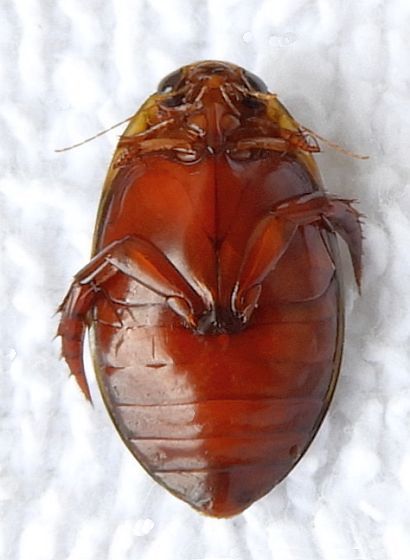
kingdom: Animalia
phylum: Arthropoda
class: Insecta
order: Coleoptera
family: Dytiscidae
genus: Thermonectus
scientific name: Thermonectus marmoratus
